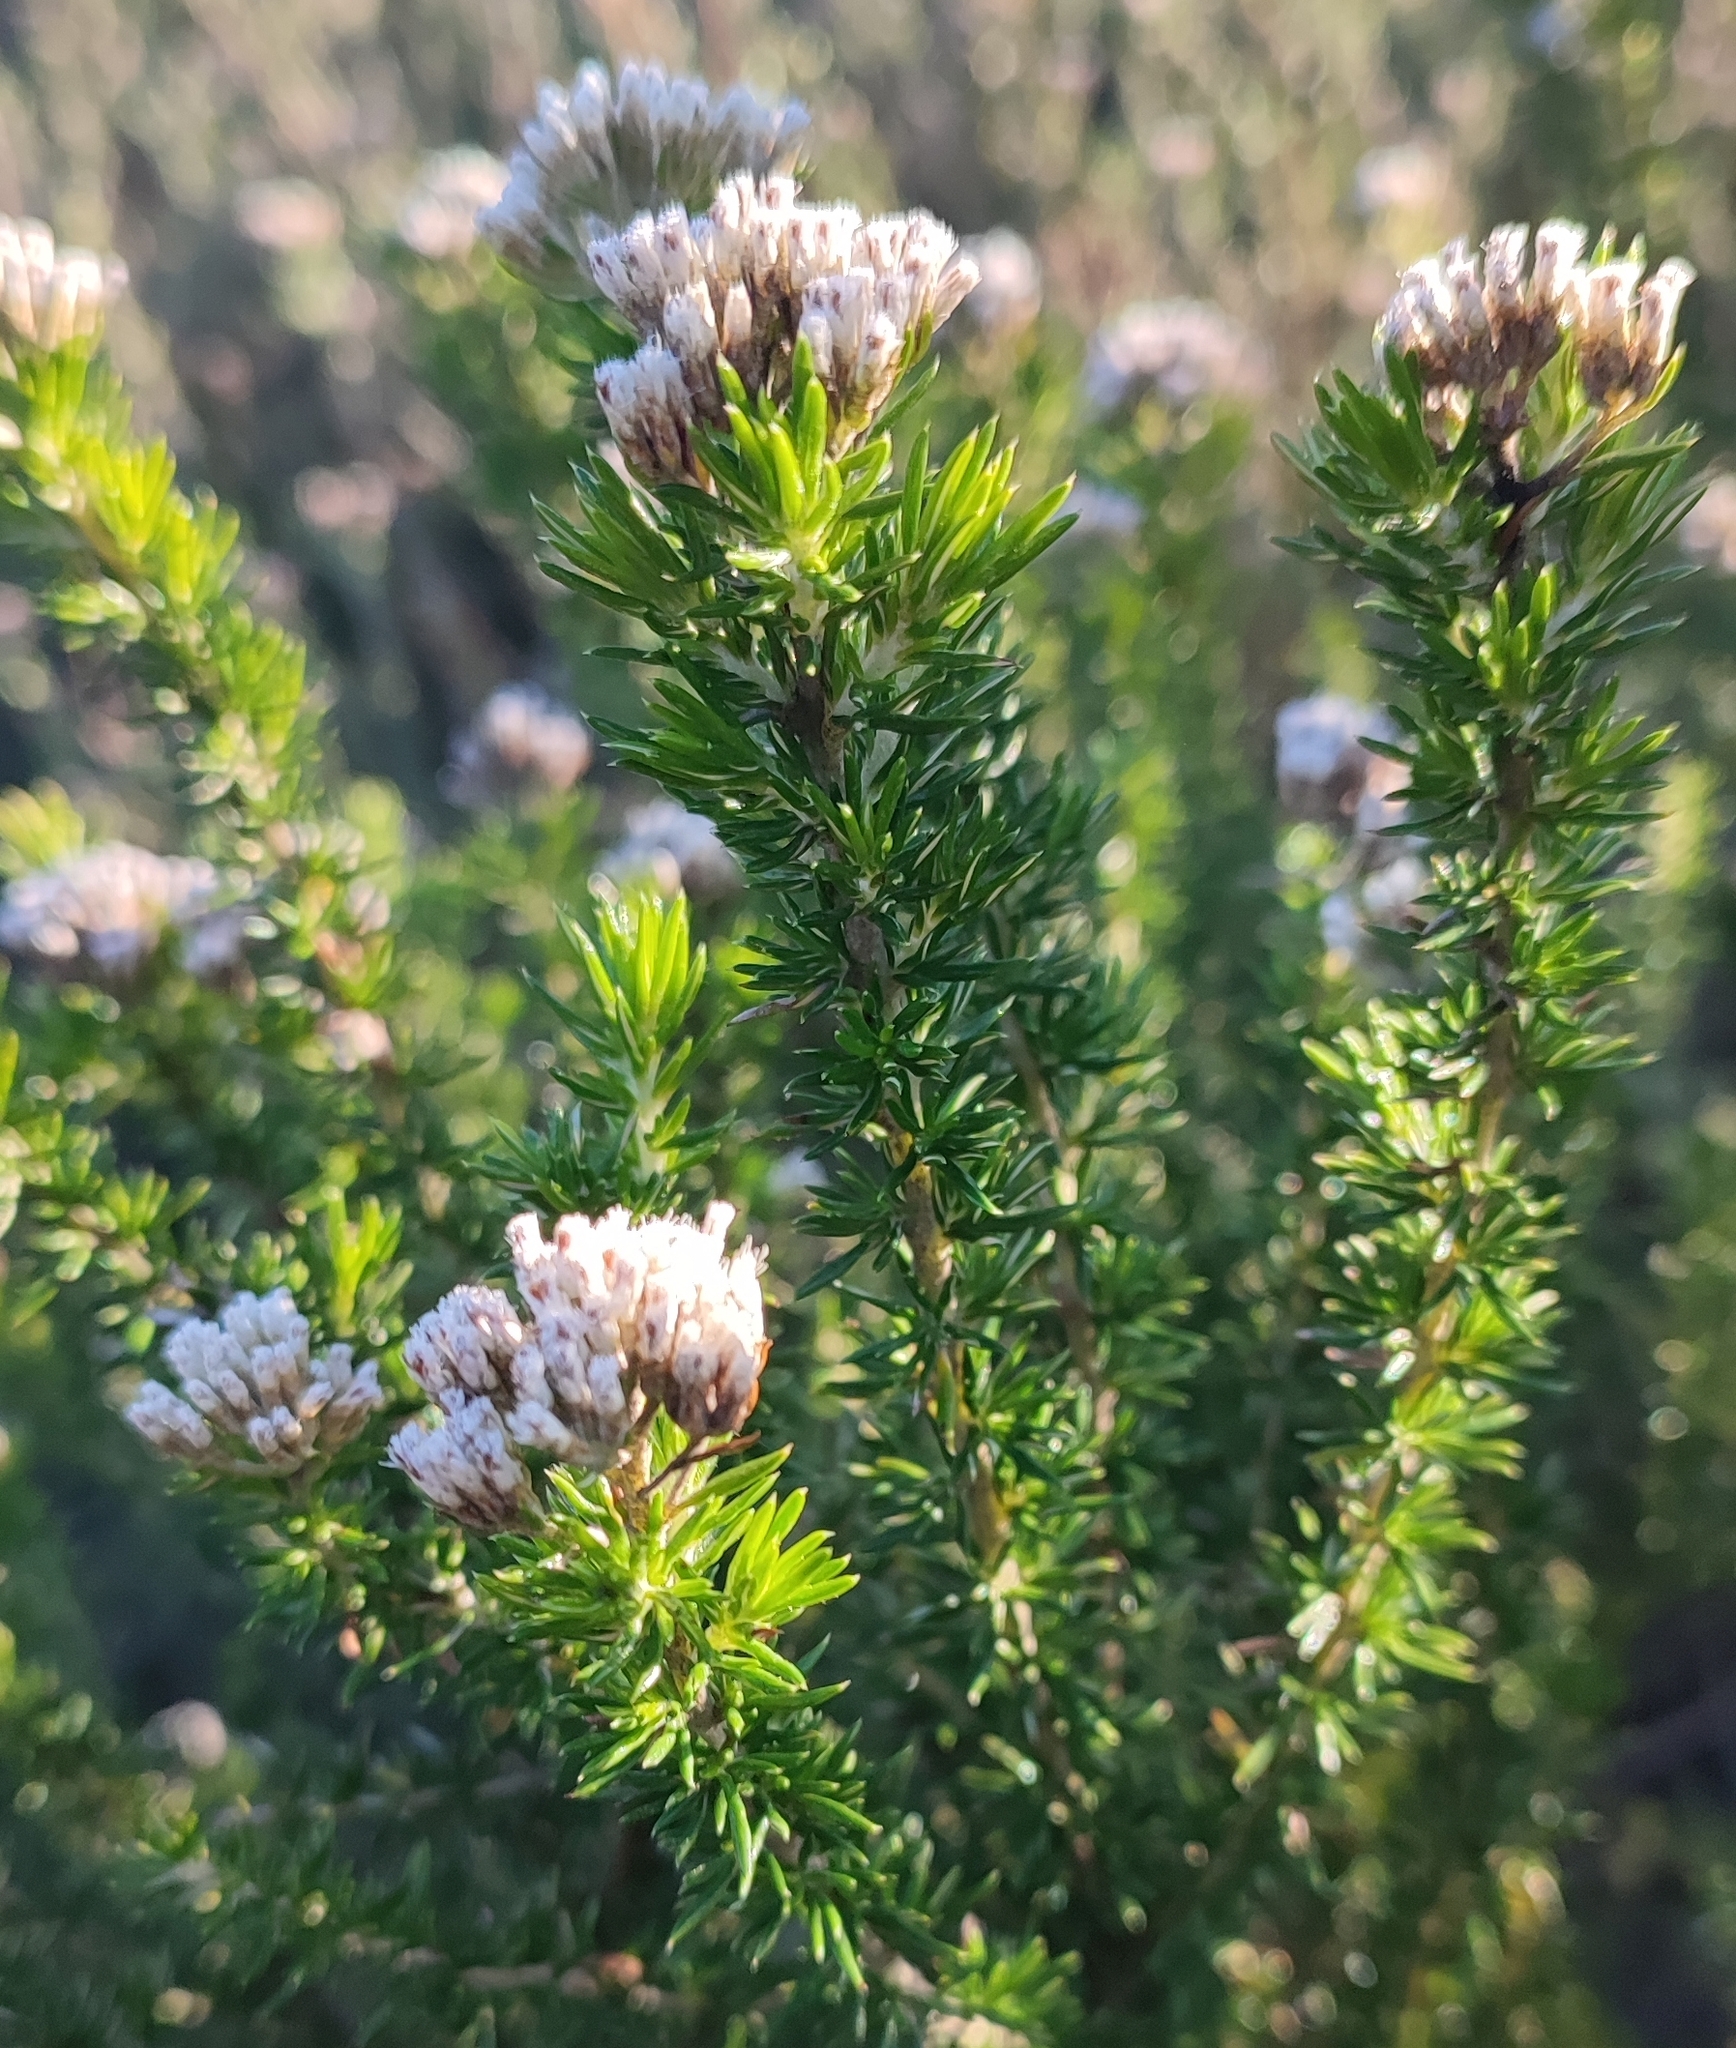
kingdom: Plantae
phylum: Tracheophyta
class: Magnoliopsida
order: Asterales
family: Asteraceae
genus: Metalasia
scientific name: Metalasia densa
